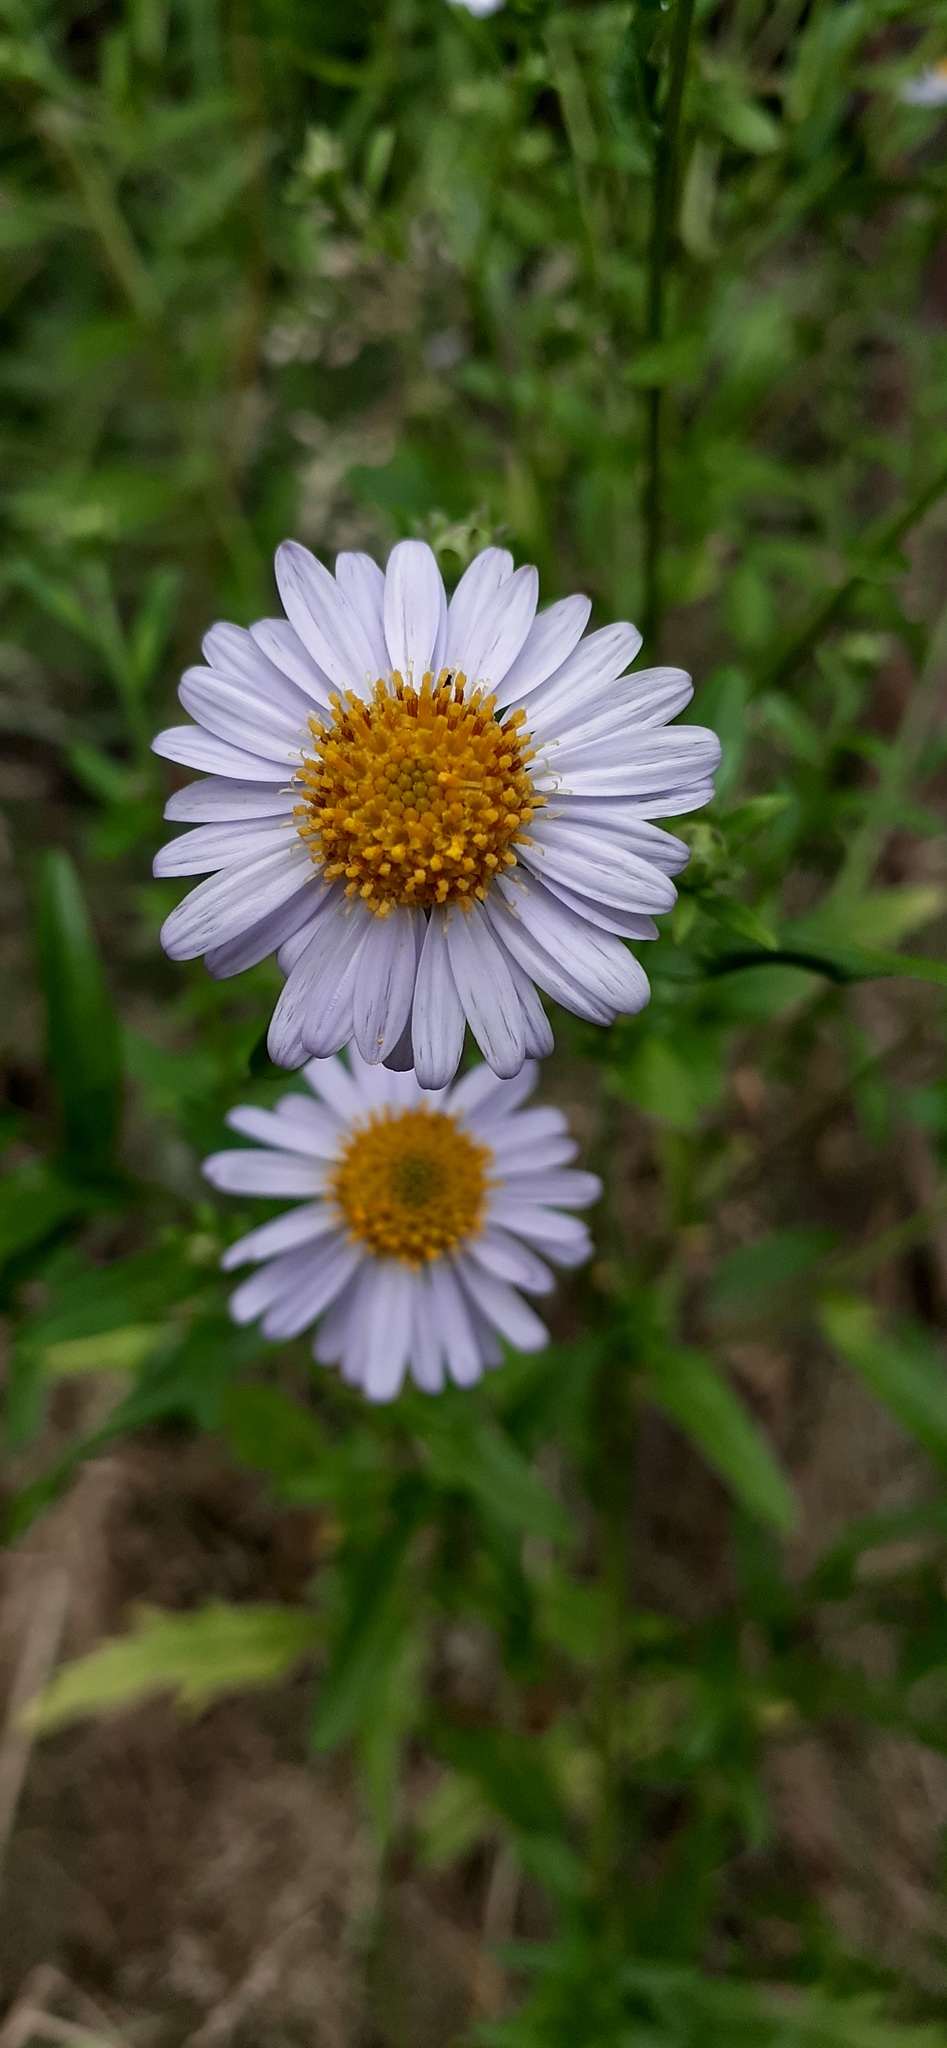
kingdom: Plantae
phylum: Tracheophyta
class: Magnoliopsida
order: Asterales
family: Asteraceae
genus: Kalimeris
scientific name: Kalimeris incisa
